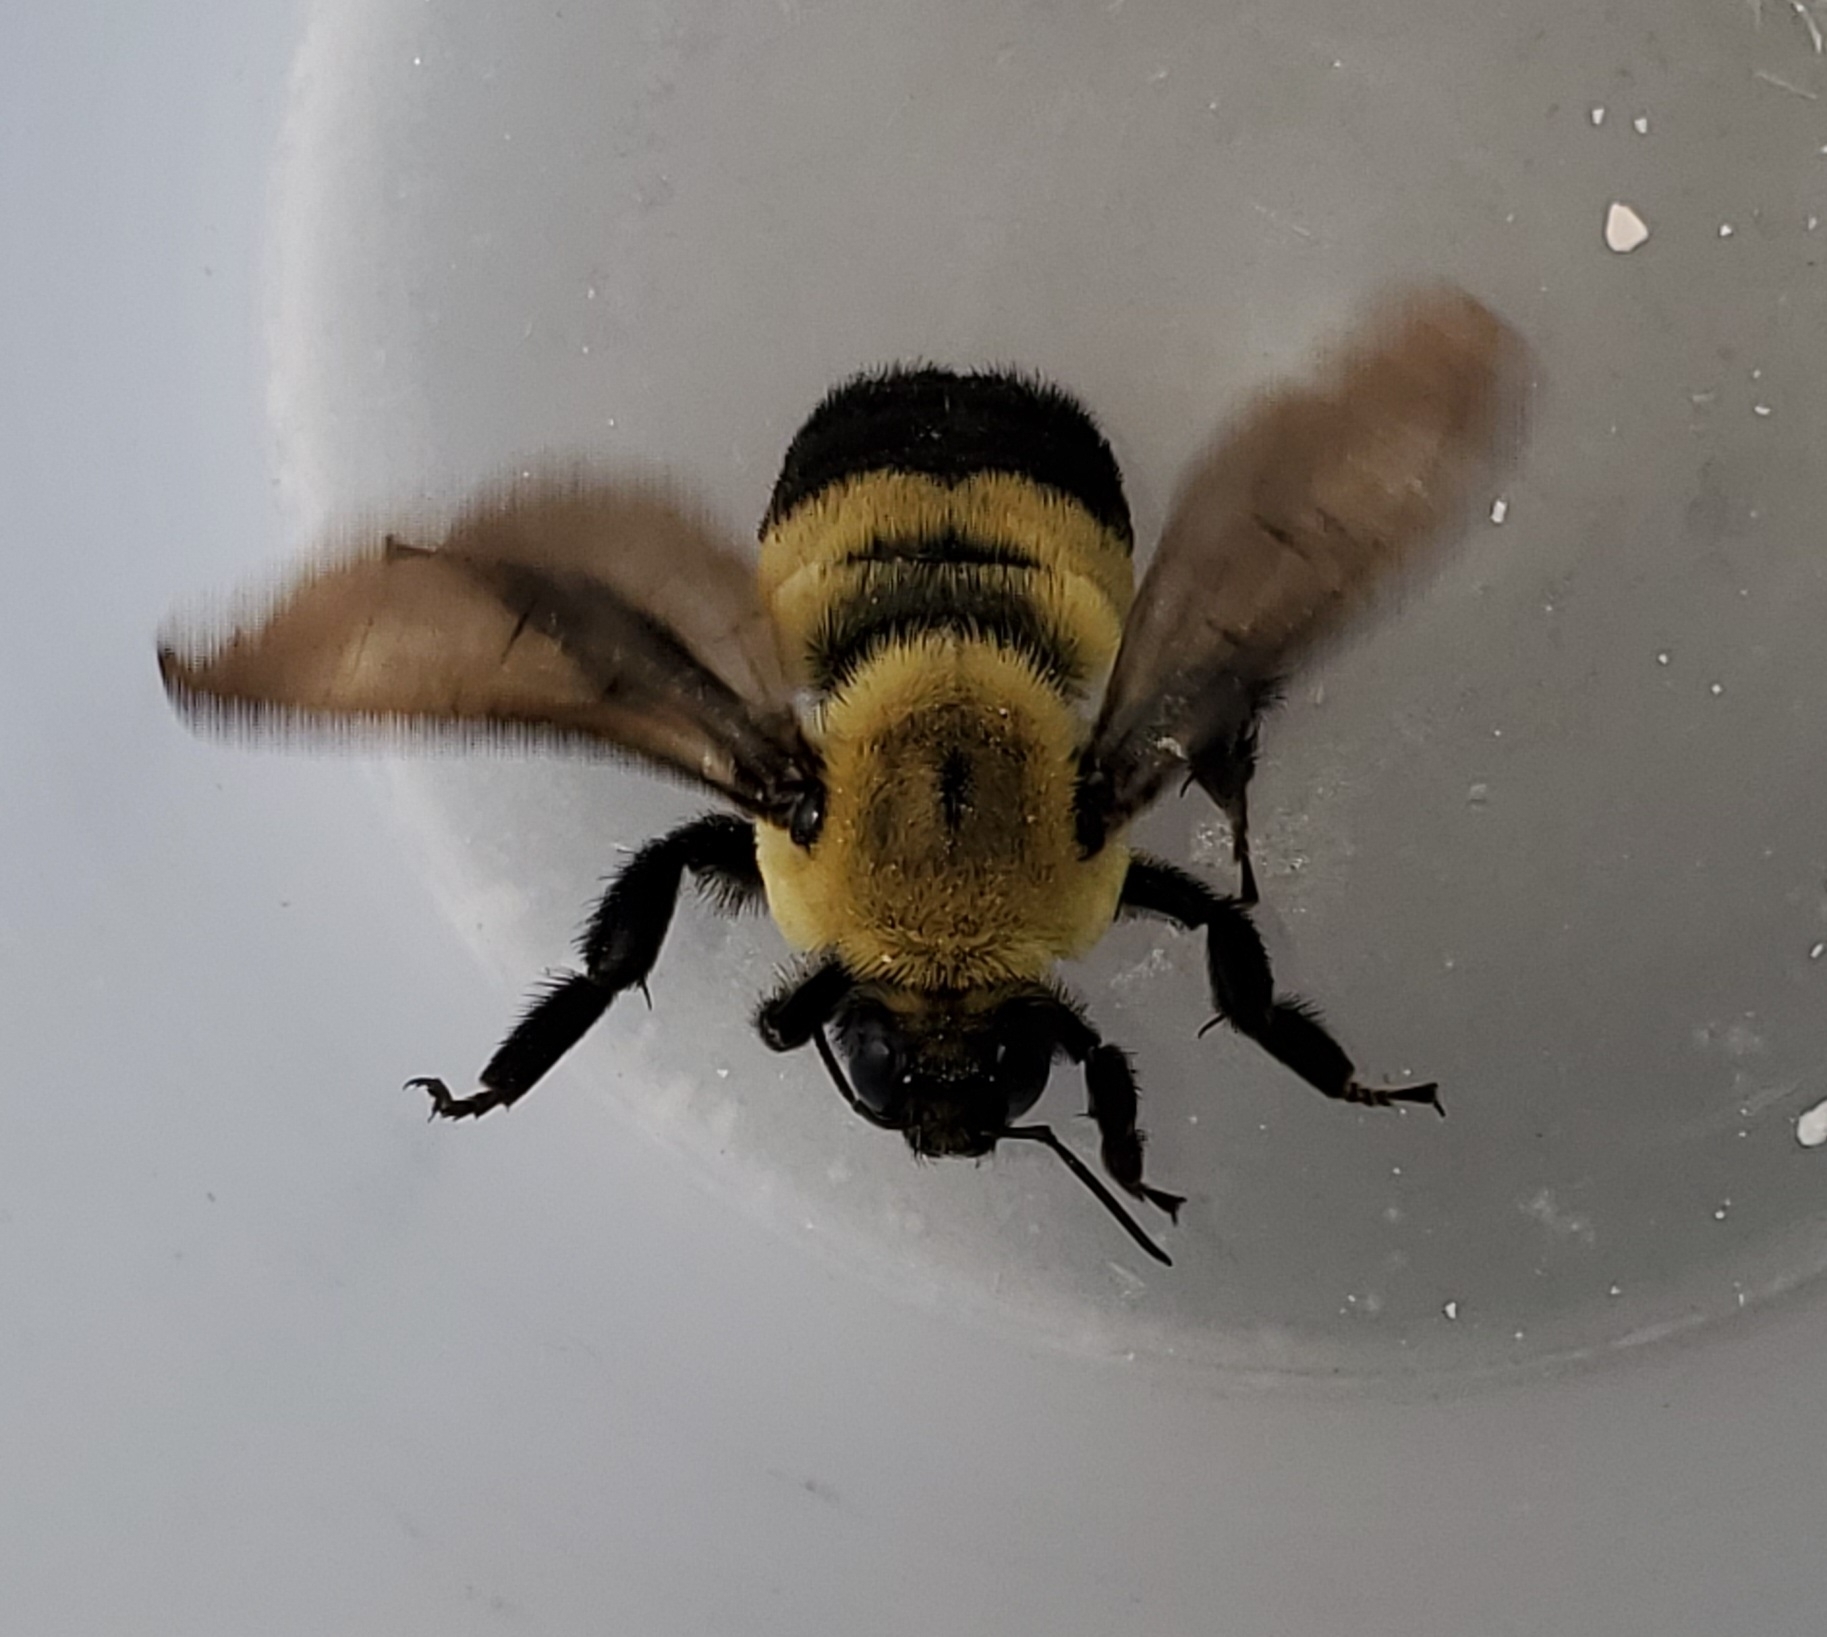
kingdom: Animalia
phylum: Arthropoda
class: Insecta
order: Hymenoptera
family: Apidae
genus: Bombus
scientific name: Bombus griseocollis
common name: Brown-belted bumble bee
